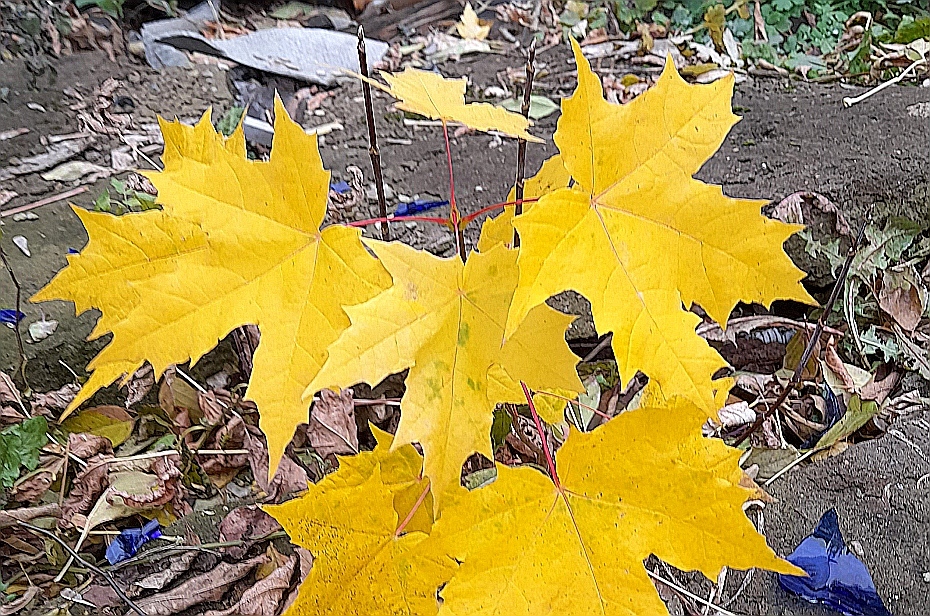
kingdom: Plantae
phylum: Tracheophyta
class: Magnoliopsida
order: Sapindales
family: Sapindaceae
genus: Acer
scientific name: Acer platanoides
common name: Norway maple
